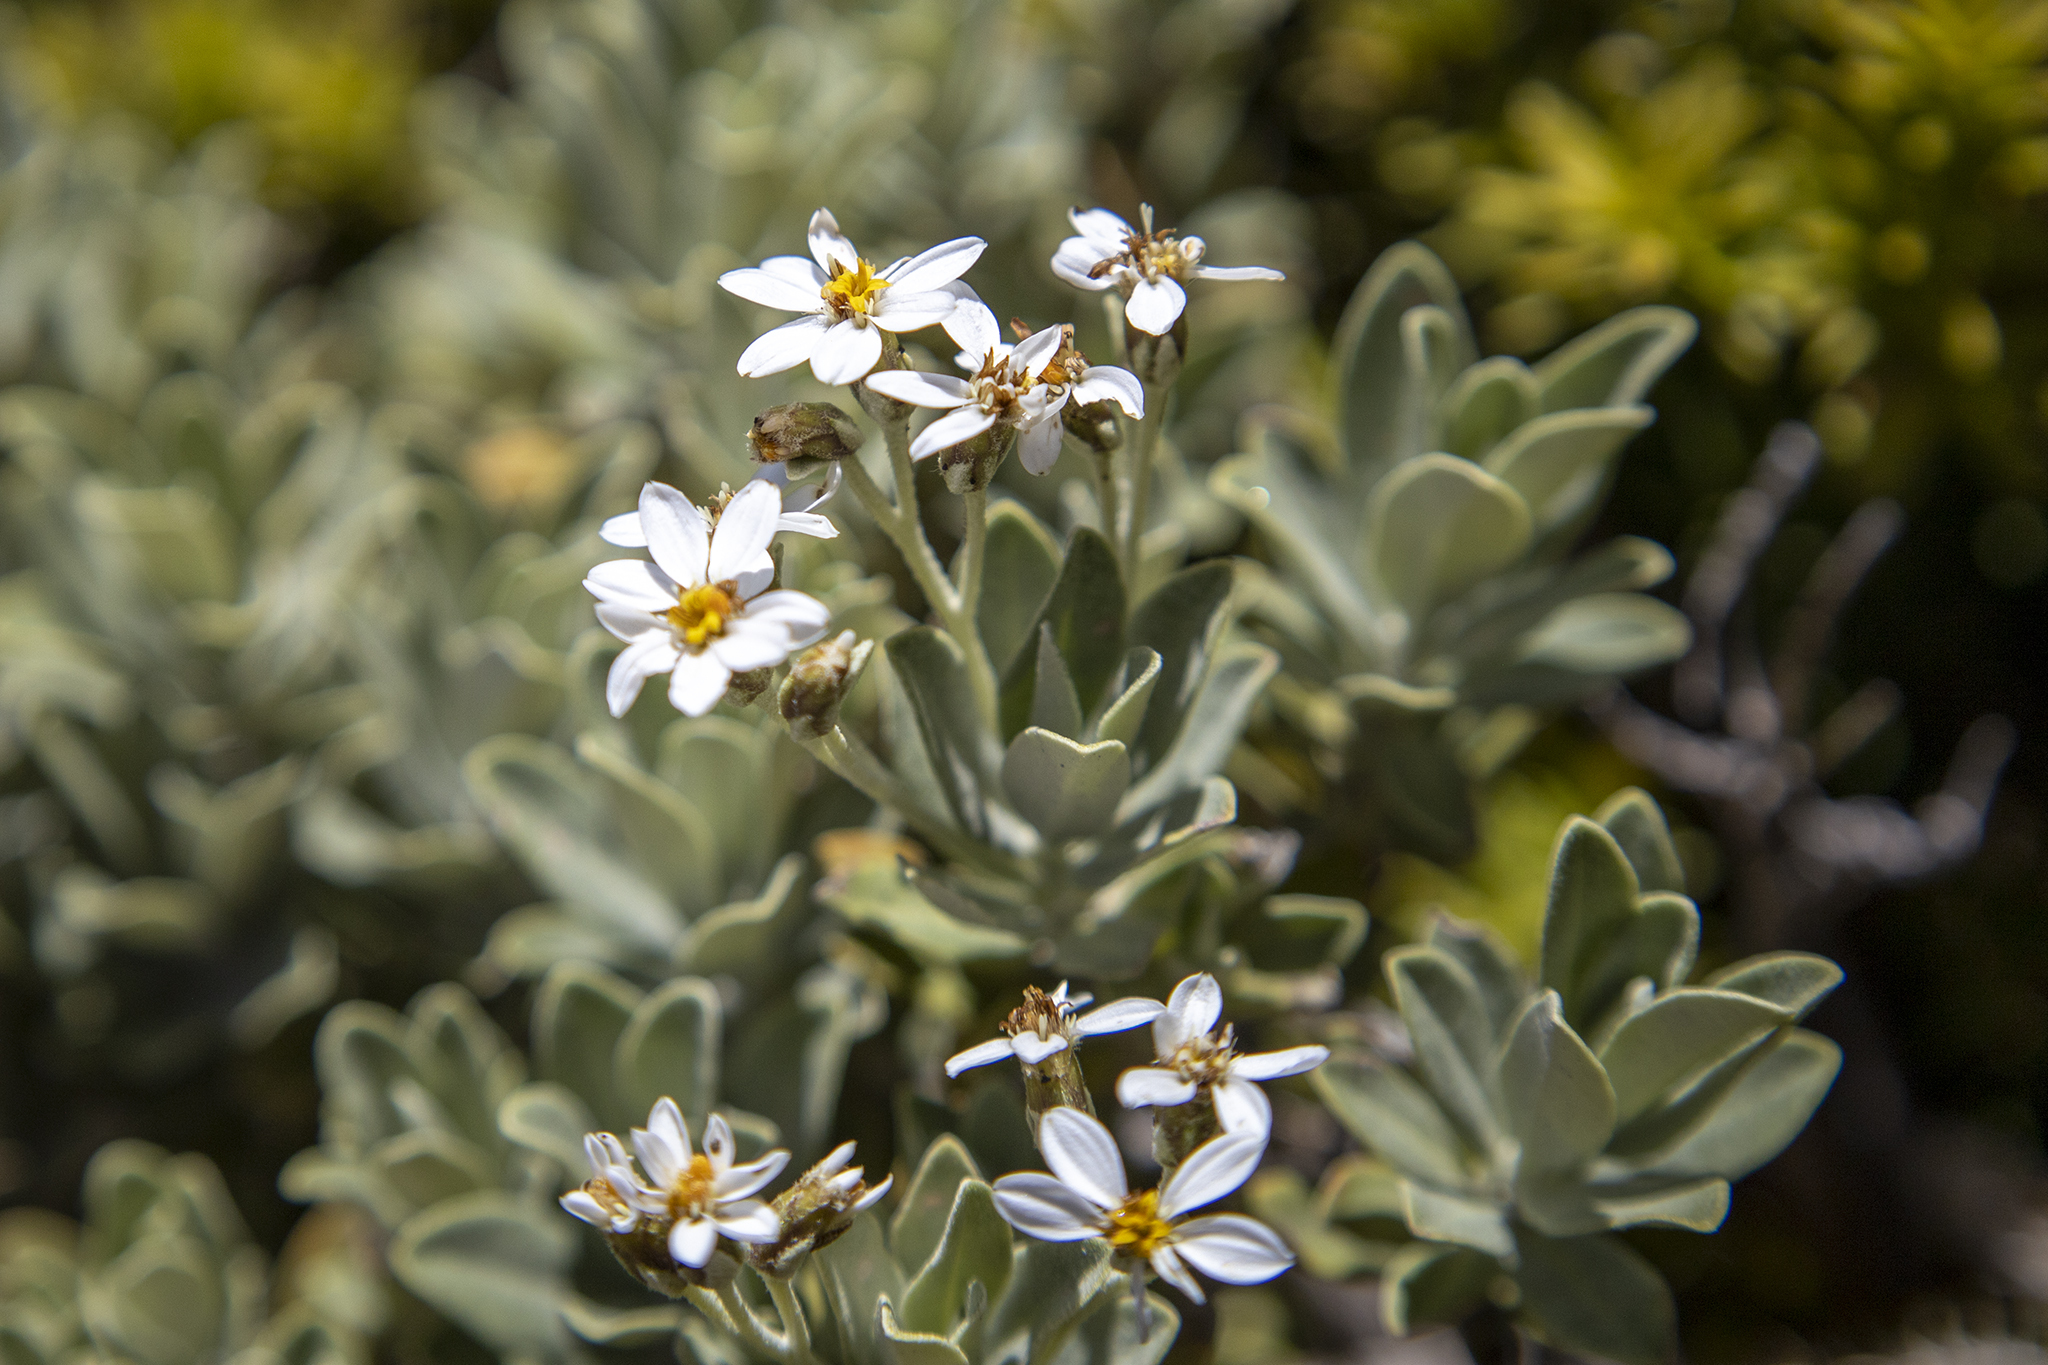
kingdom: Plantae
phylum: Tracheophyta
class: Magnoliopsida
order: Asterales
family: Asteraceae
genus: Olearia
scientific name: Olearia moschata
